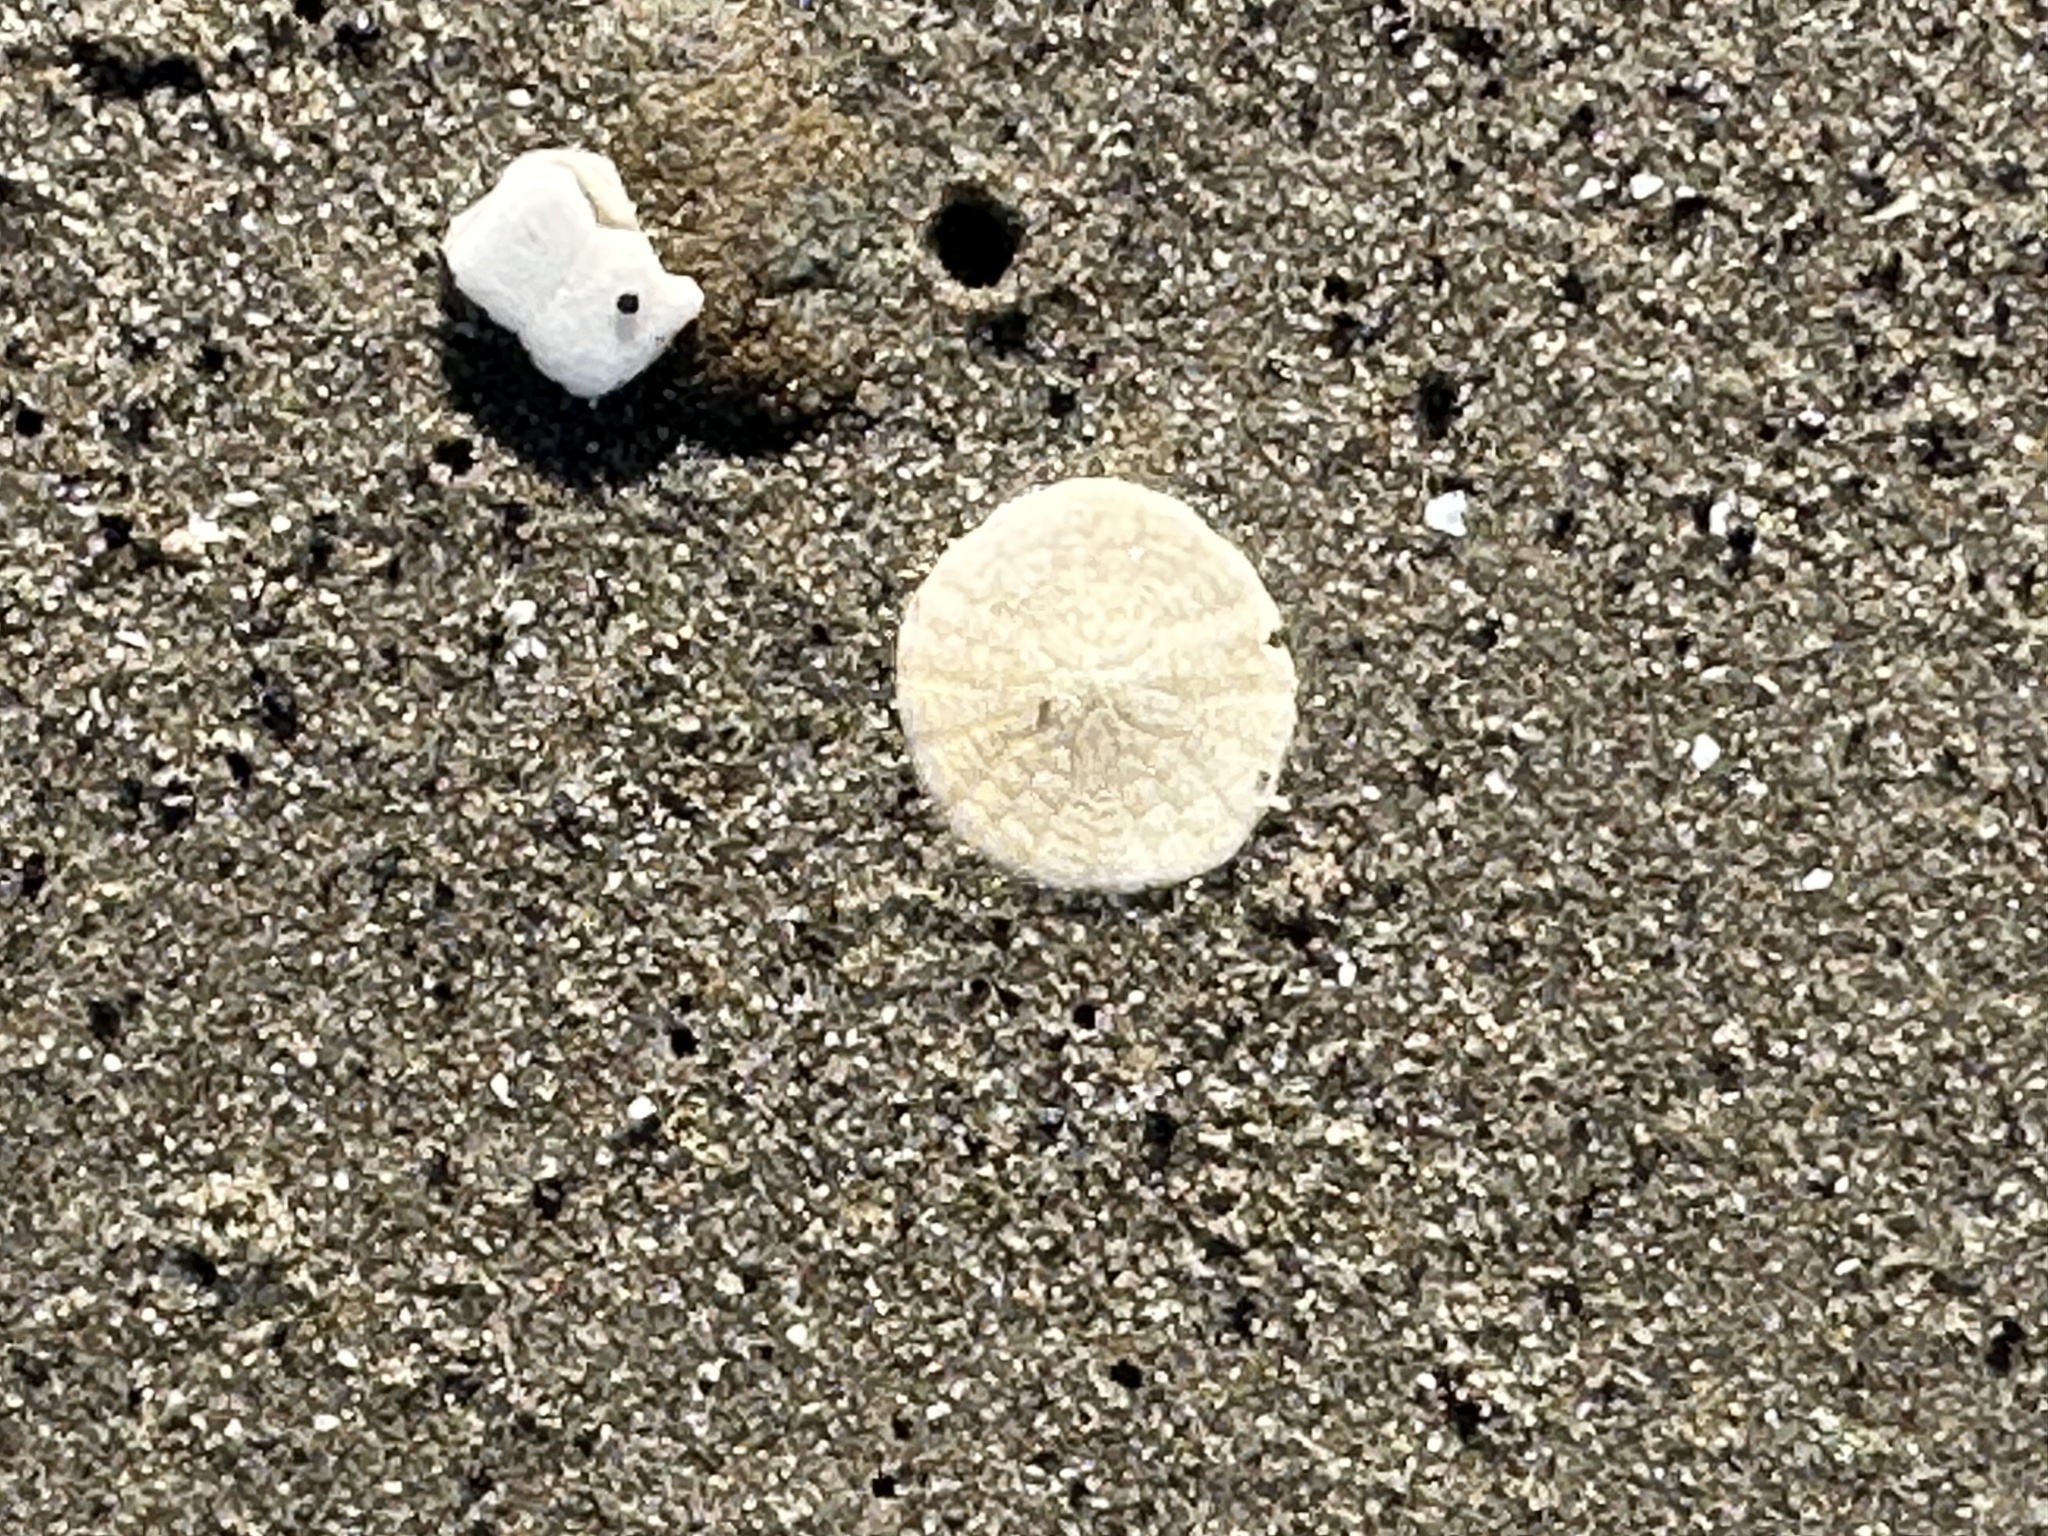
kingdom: Animalia
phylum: Echinodermata
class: Echinoidea
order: Echinolampadacea
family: Echinarachniidae
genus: Echinarachnius
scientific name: Echinarachnius parma
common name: Common sand dollar
